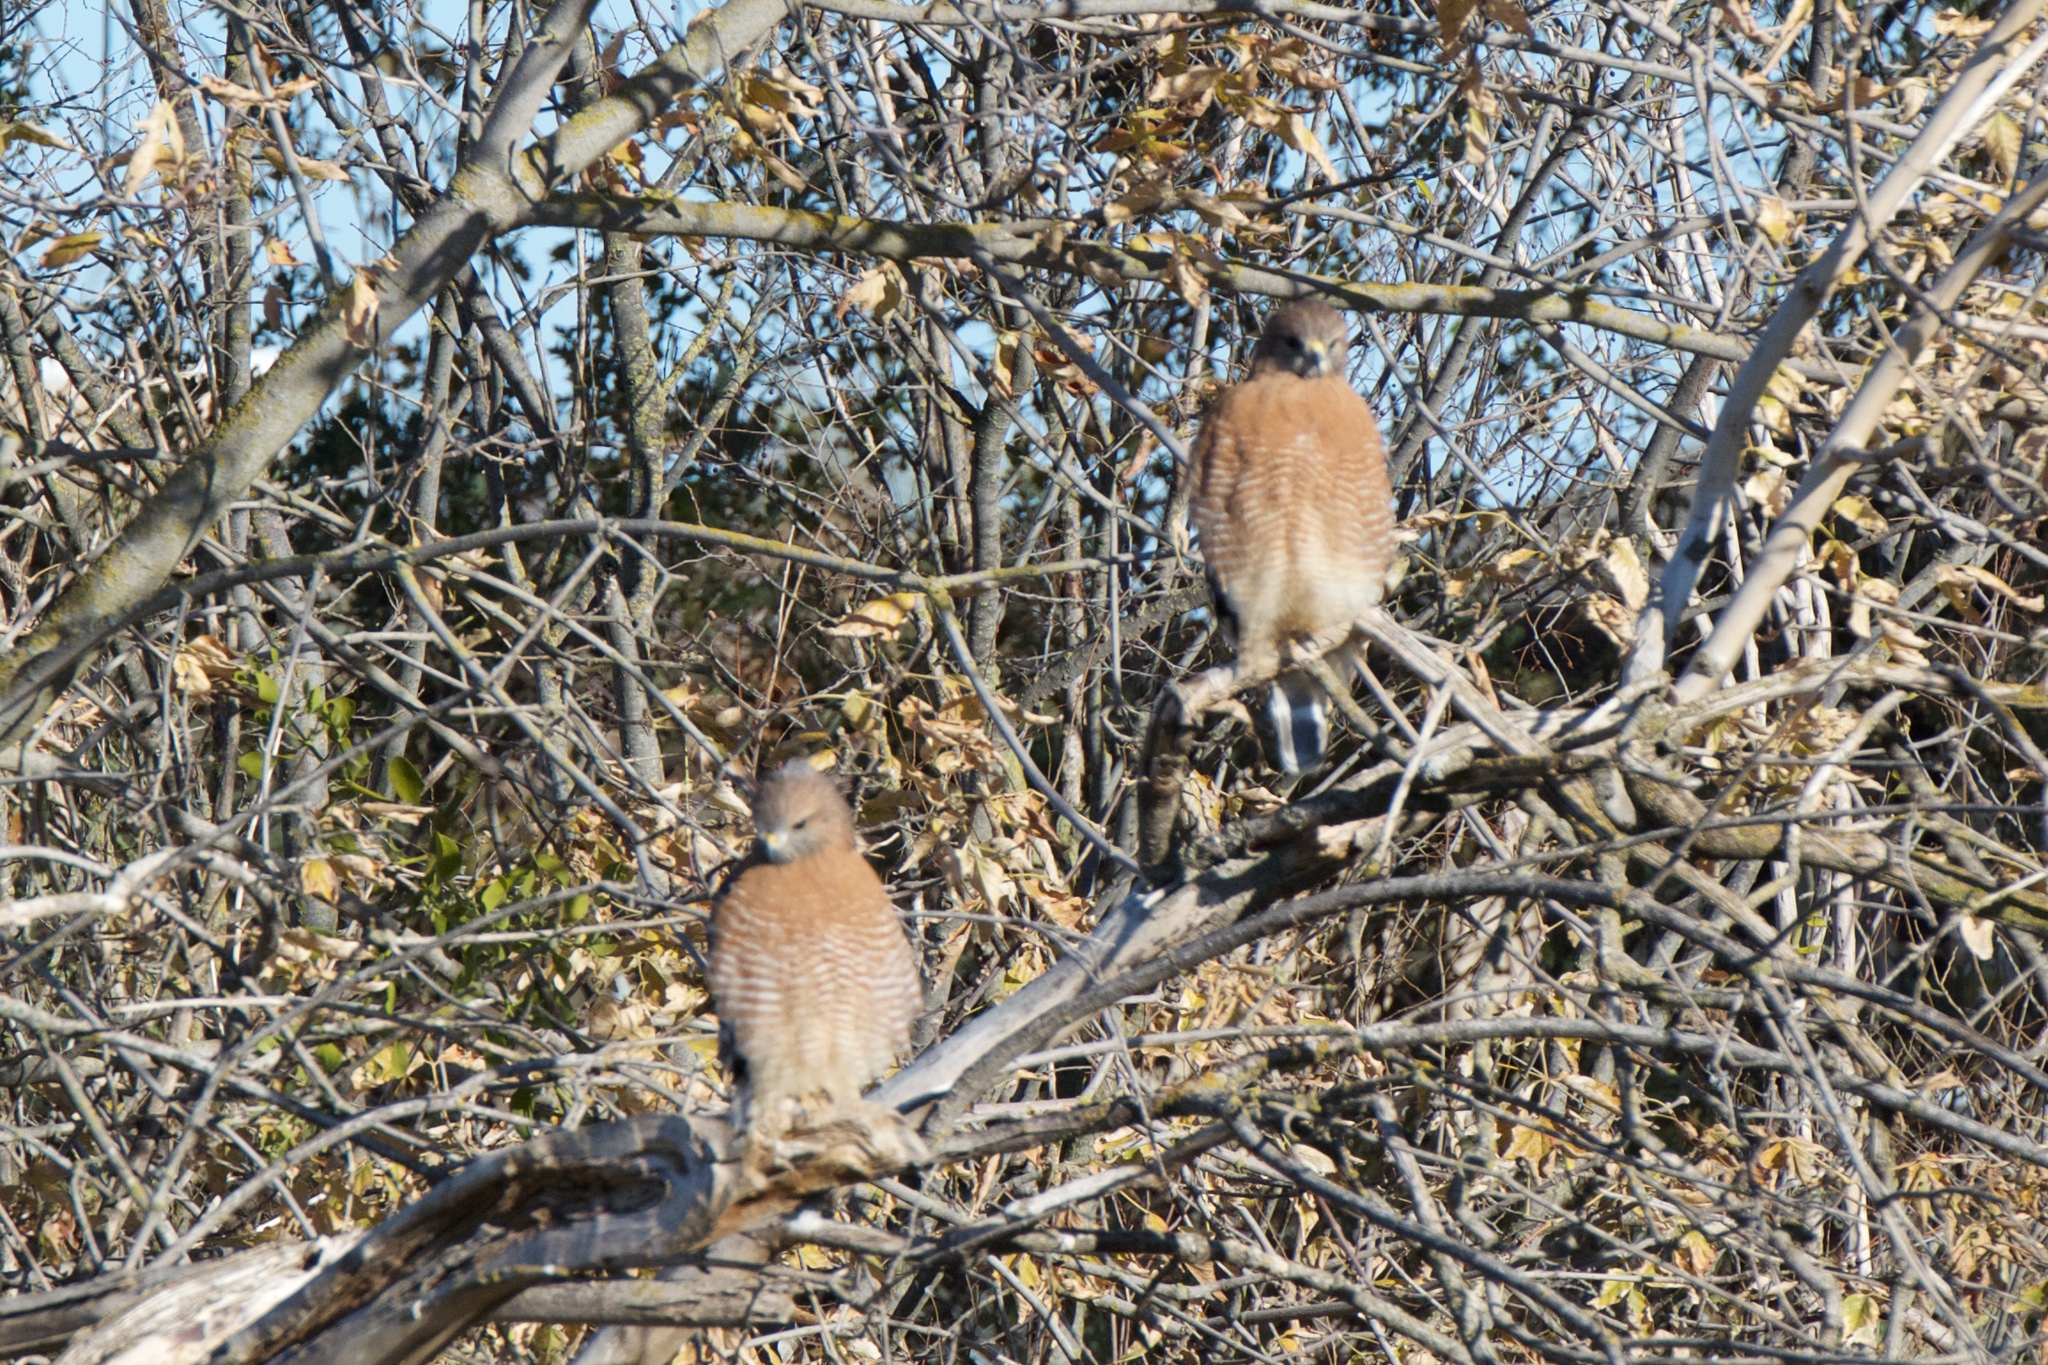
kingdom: Animalia
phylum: Chordata
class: Aves
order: Accipitriformes
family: Accipitridae
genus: Buteo
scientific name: Buteo lineatus
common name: Red-shouldered hawk
